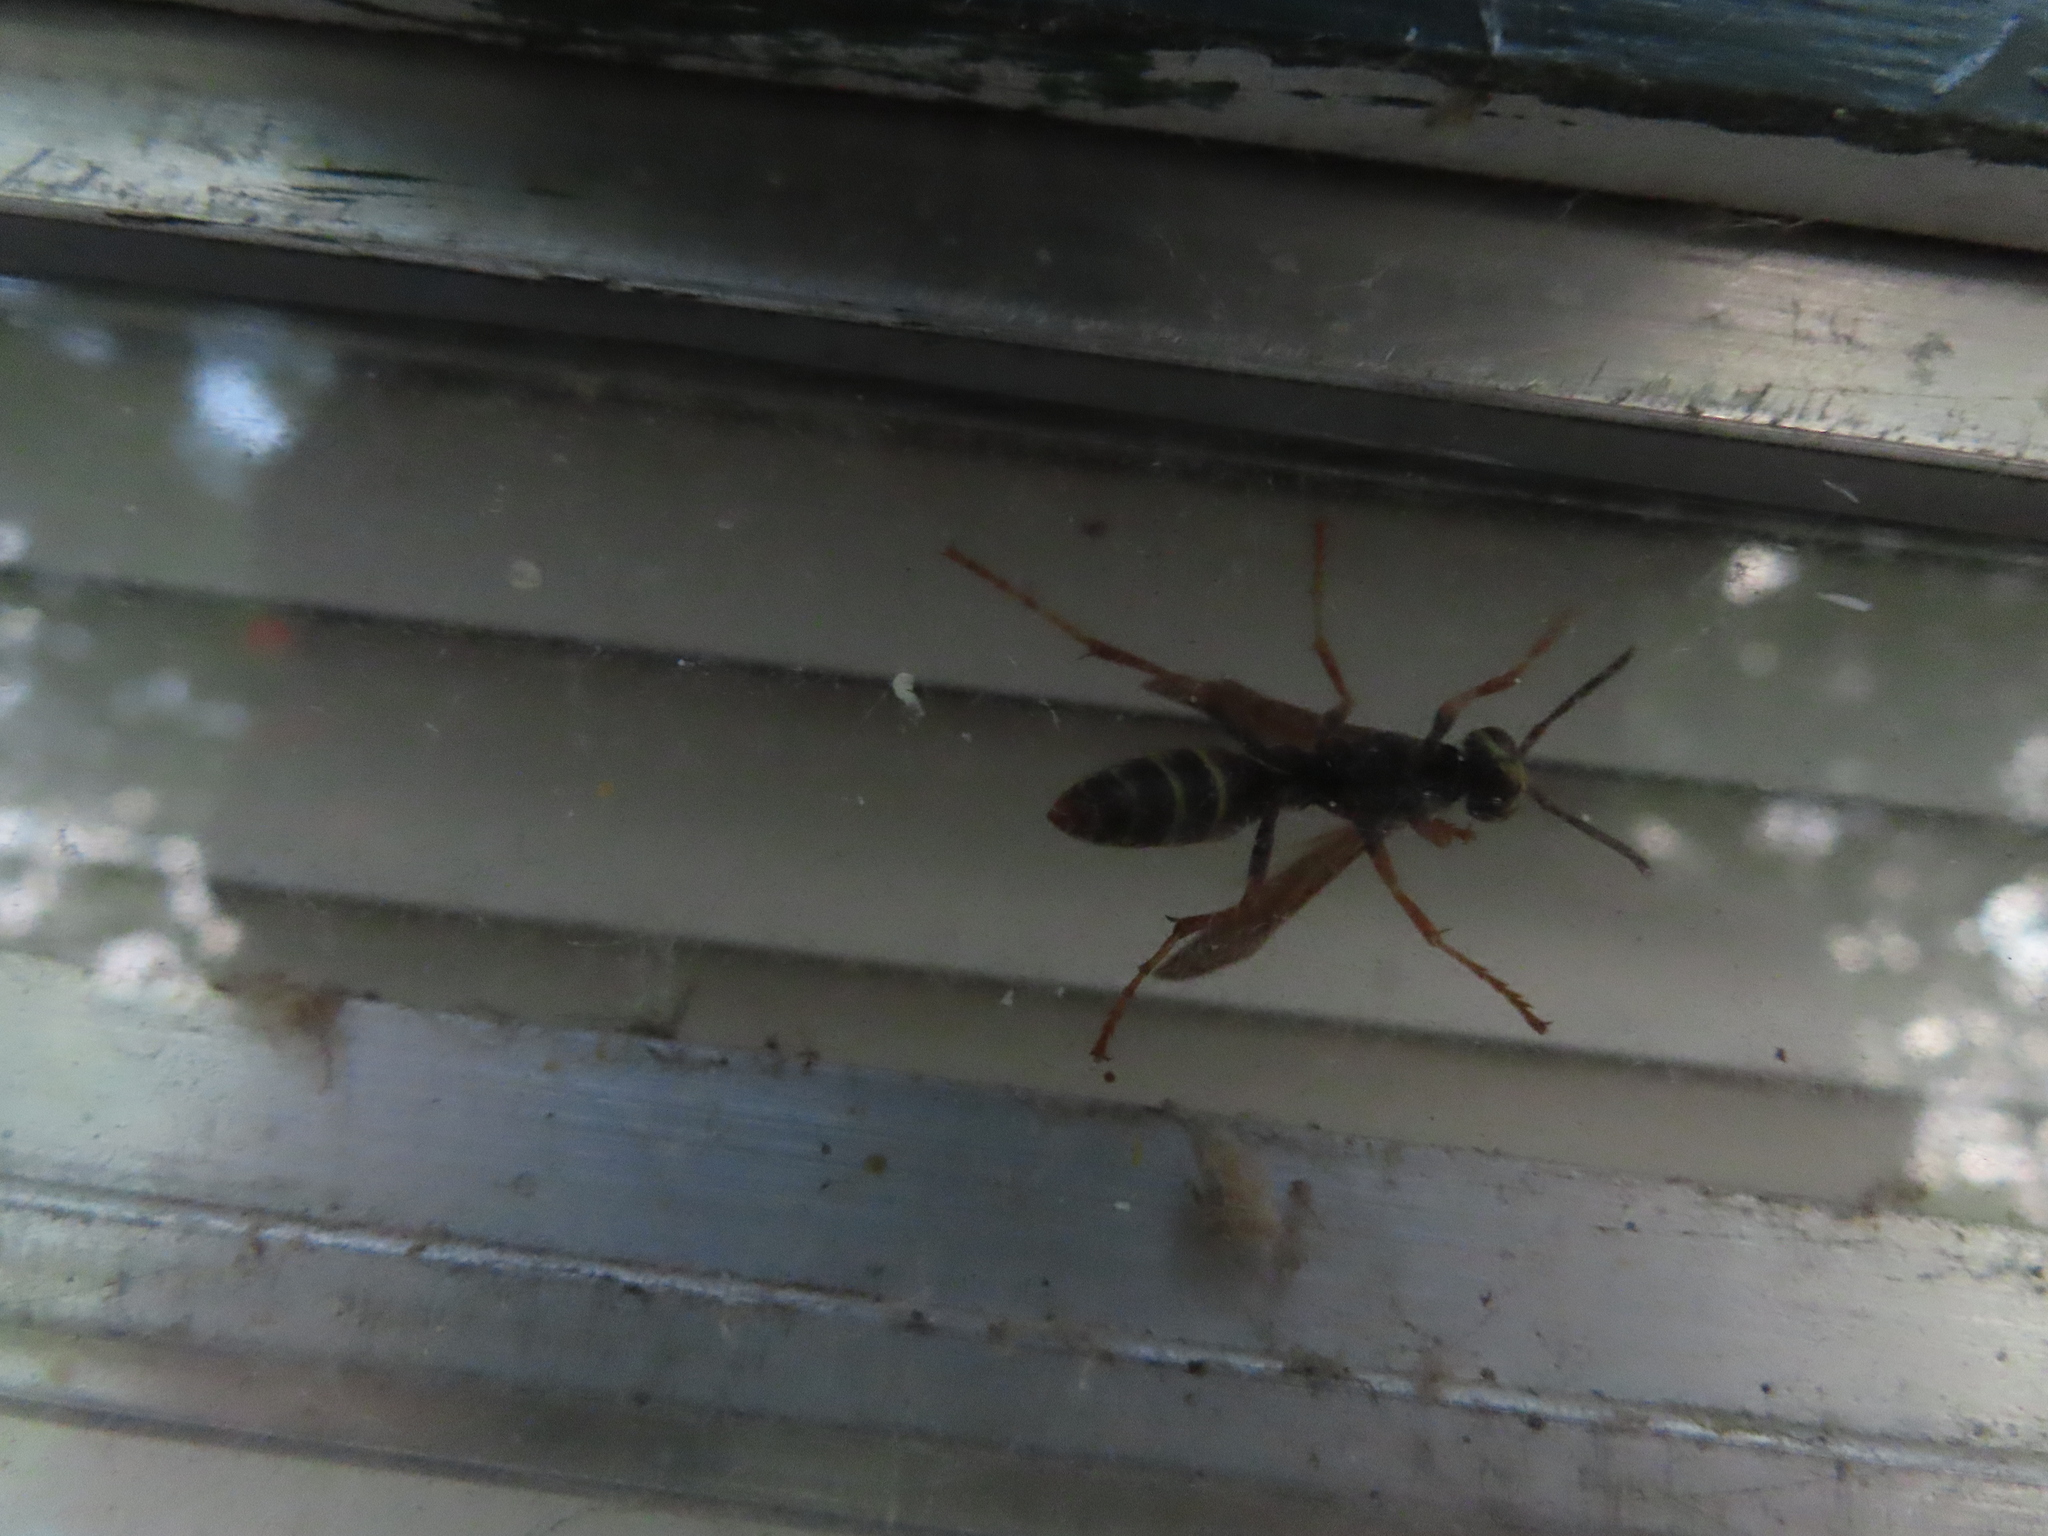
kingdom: Animalia
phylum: Arthropoda
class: Insecta
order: Hymenoptera
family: Eumenidae
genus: Polistes
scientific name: Polistes fuscatus
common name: Dark paper wasp
